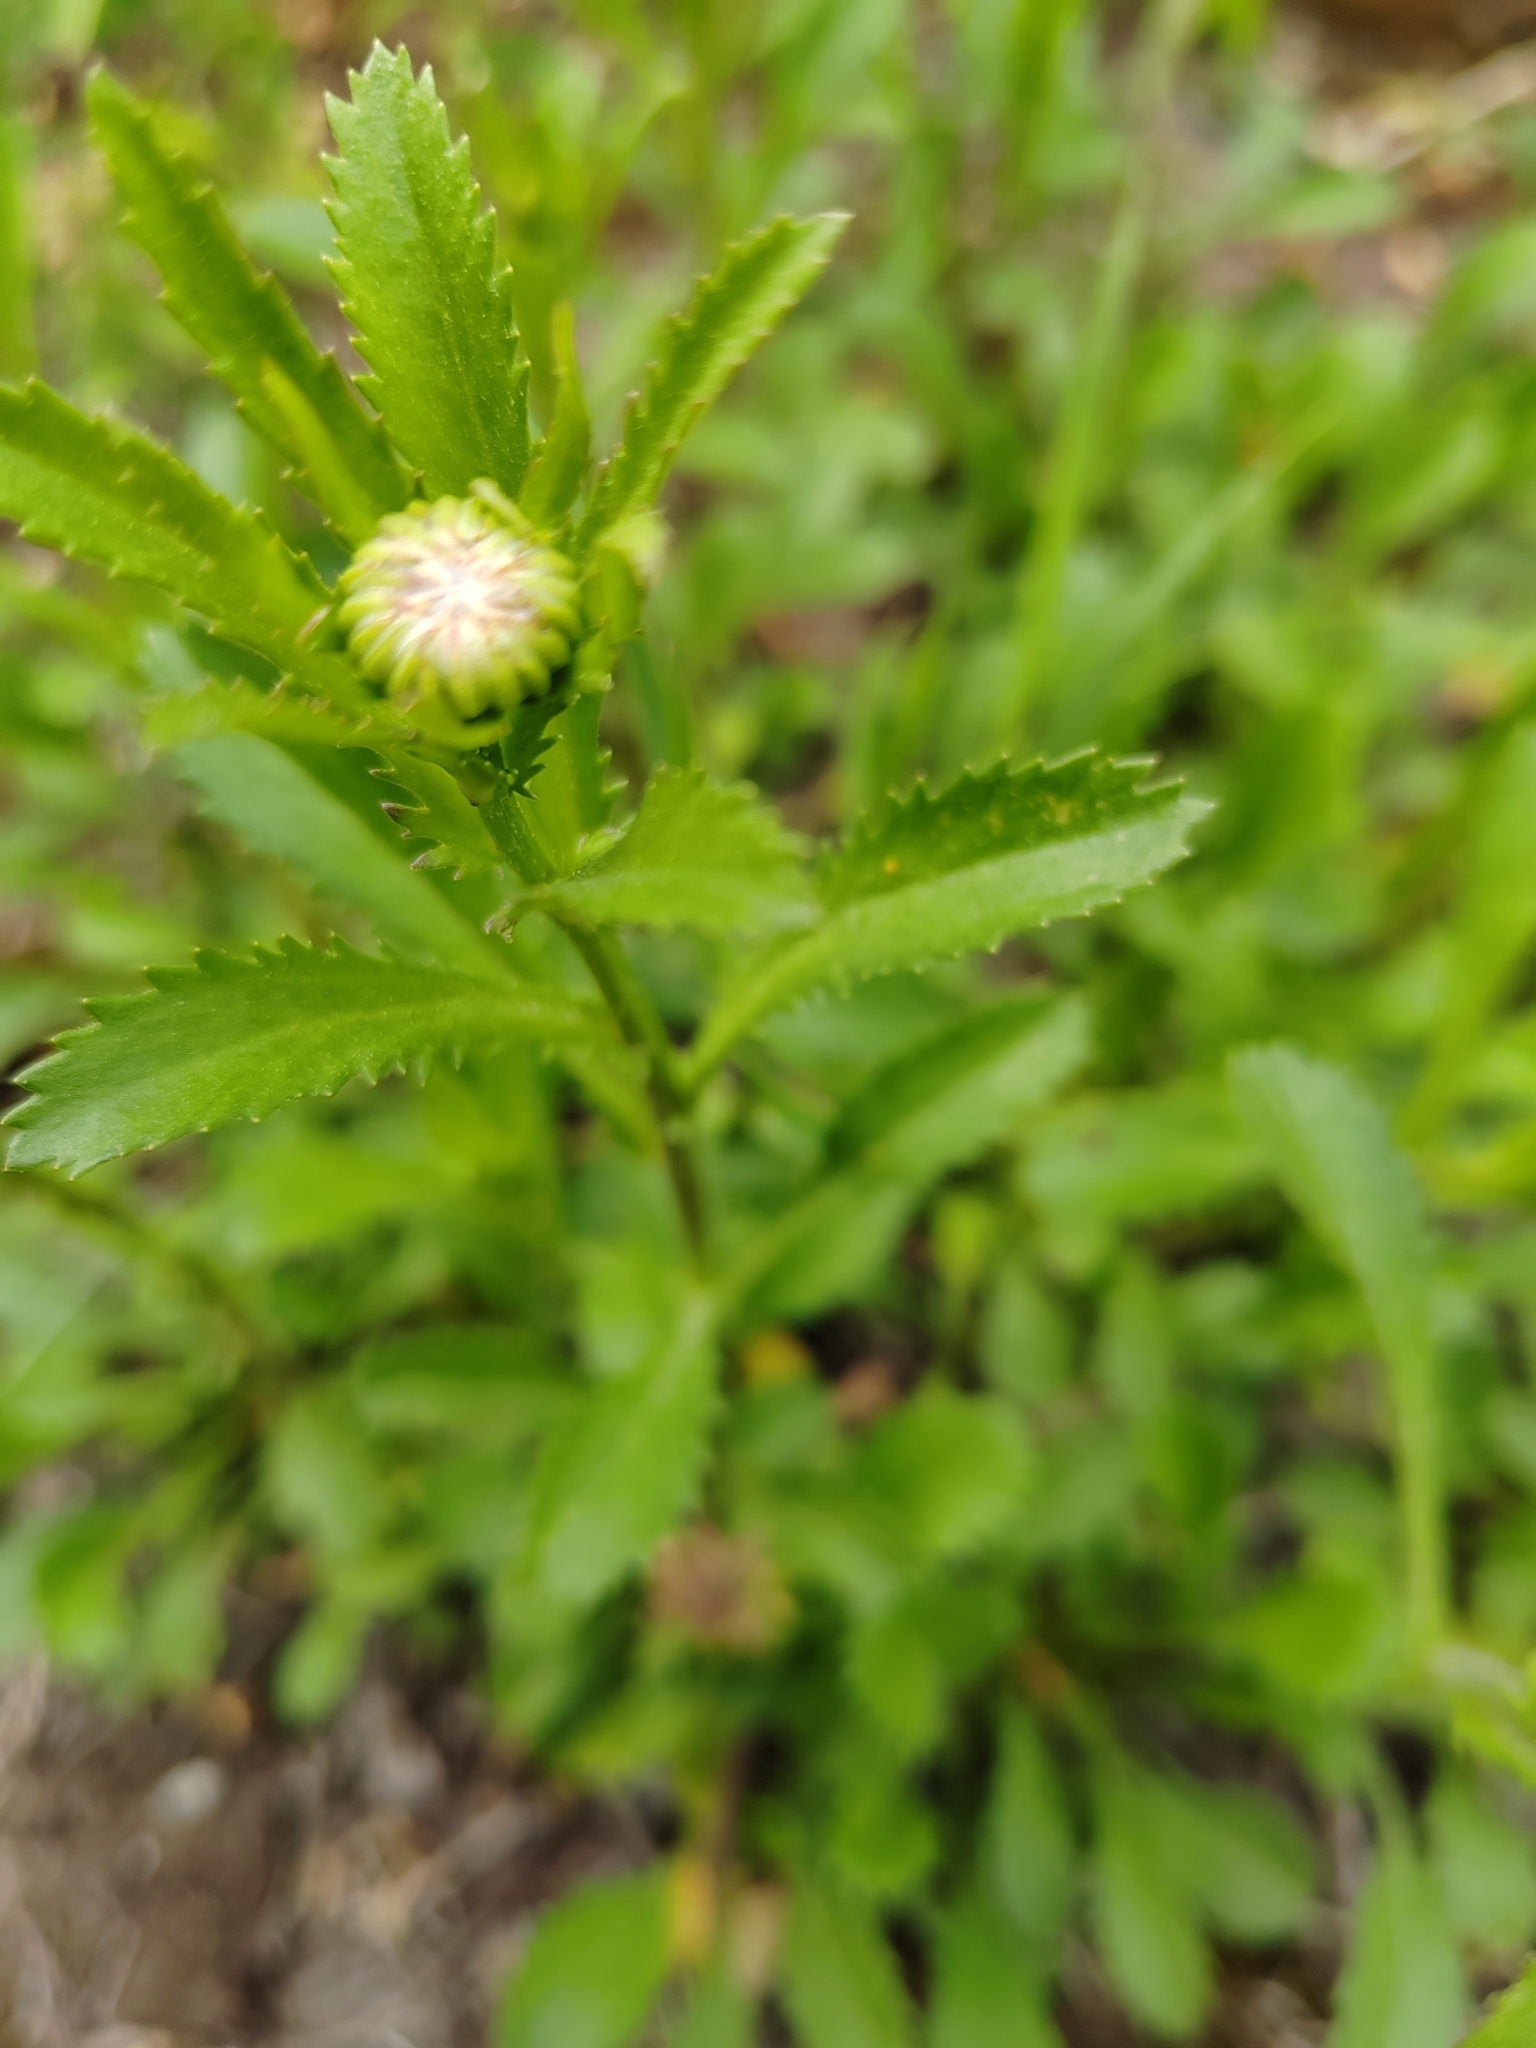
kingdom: Plantae
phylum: Tracheophyta
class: Magnoliopsida
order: Asterales
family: Asteraceae
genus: Leucanthemum
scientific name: Leucanthemum ircutianum
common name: Daisy
